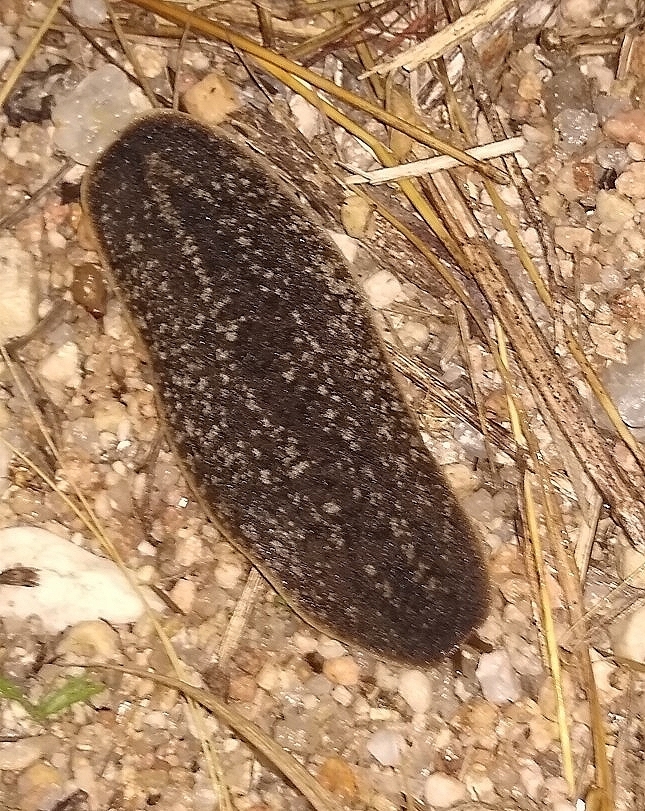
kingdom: Animalia
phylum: Mollusca
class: Gastropoda
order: Systellommatophora
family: Veronicellidae
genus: Phyllocaulis
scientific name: Phyllocaulis soleiformis
